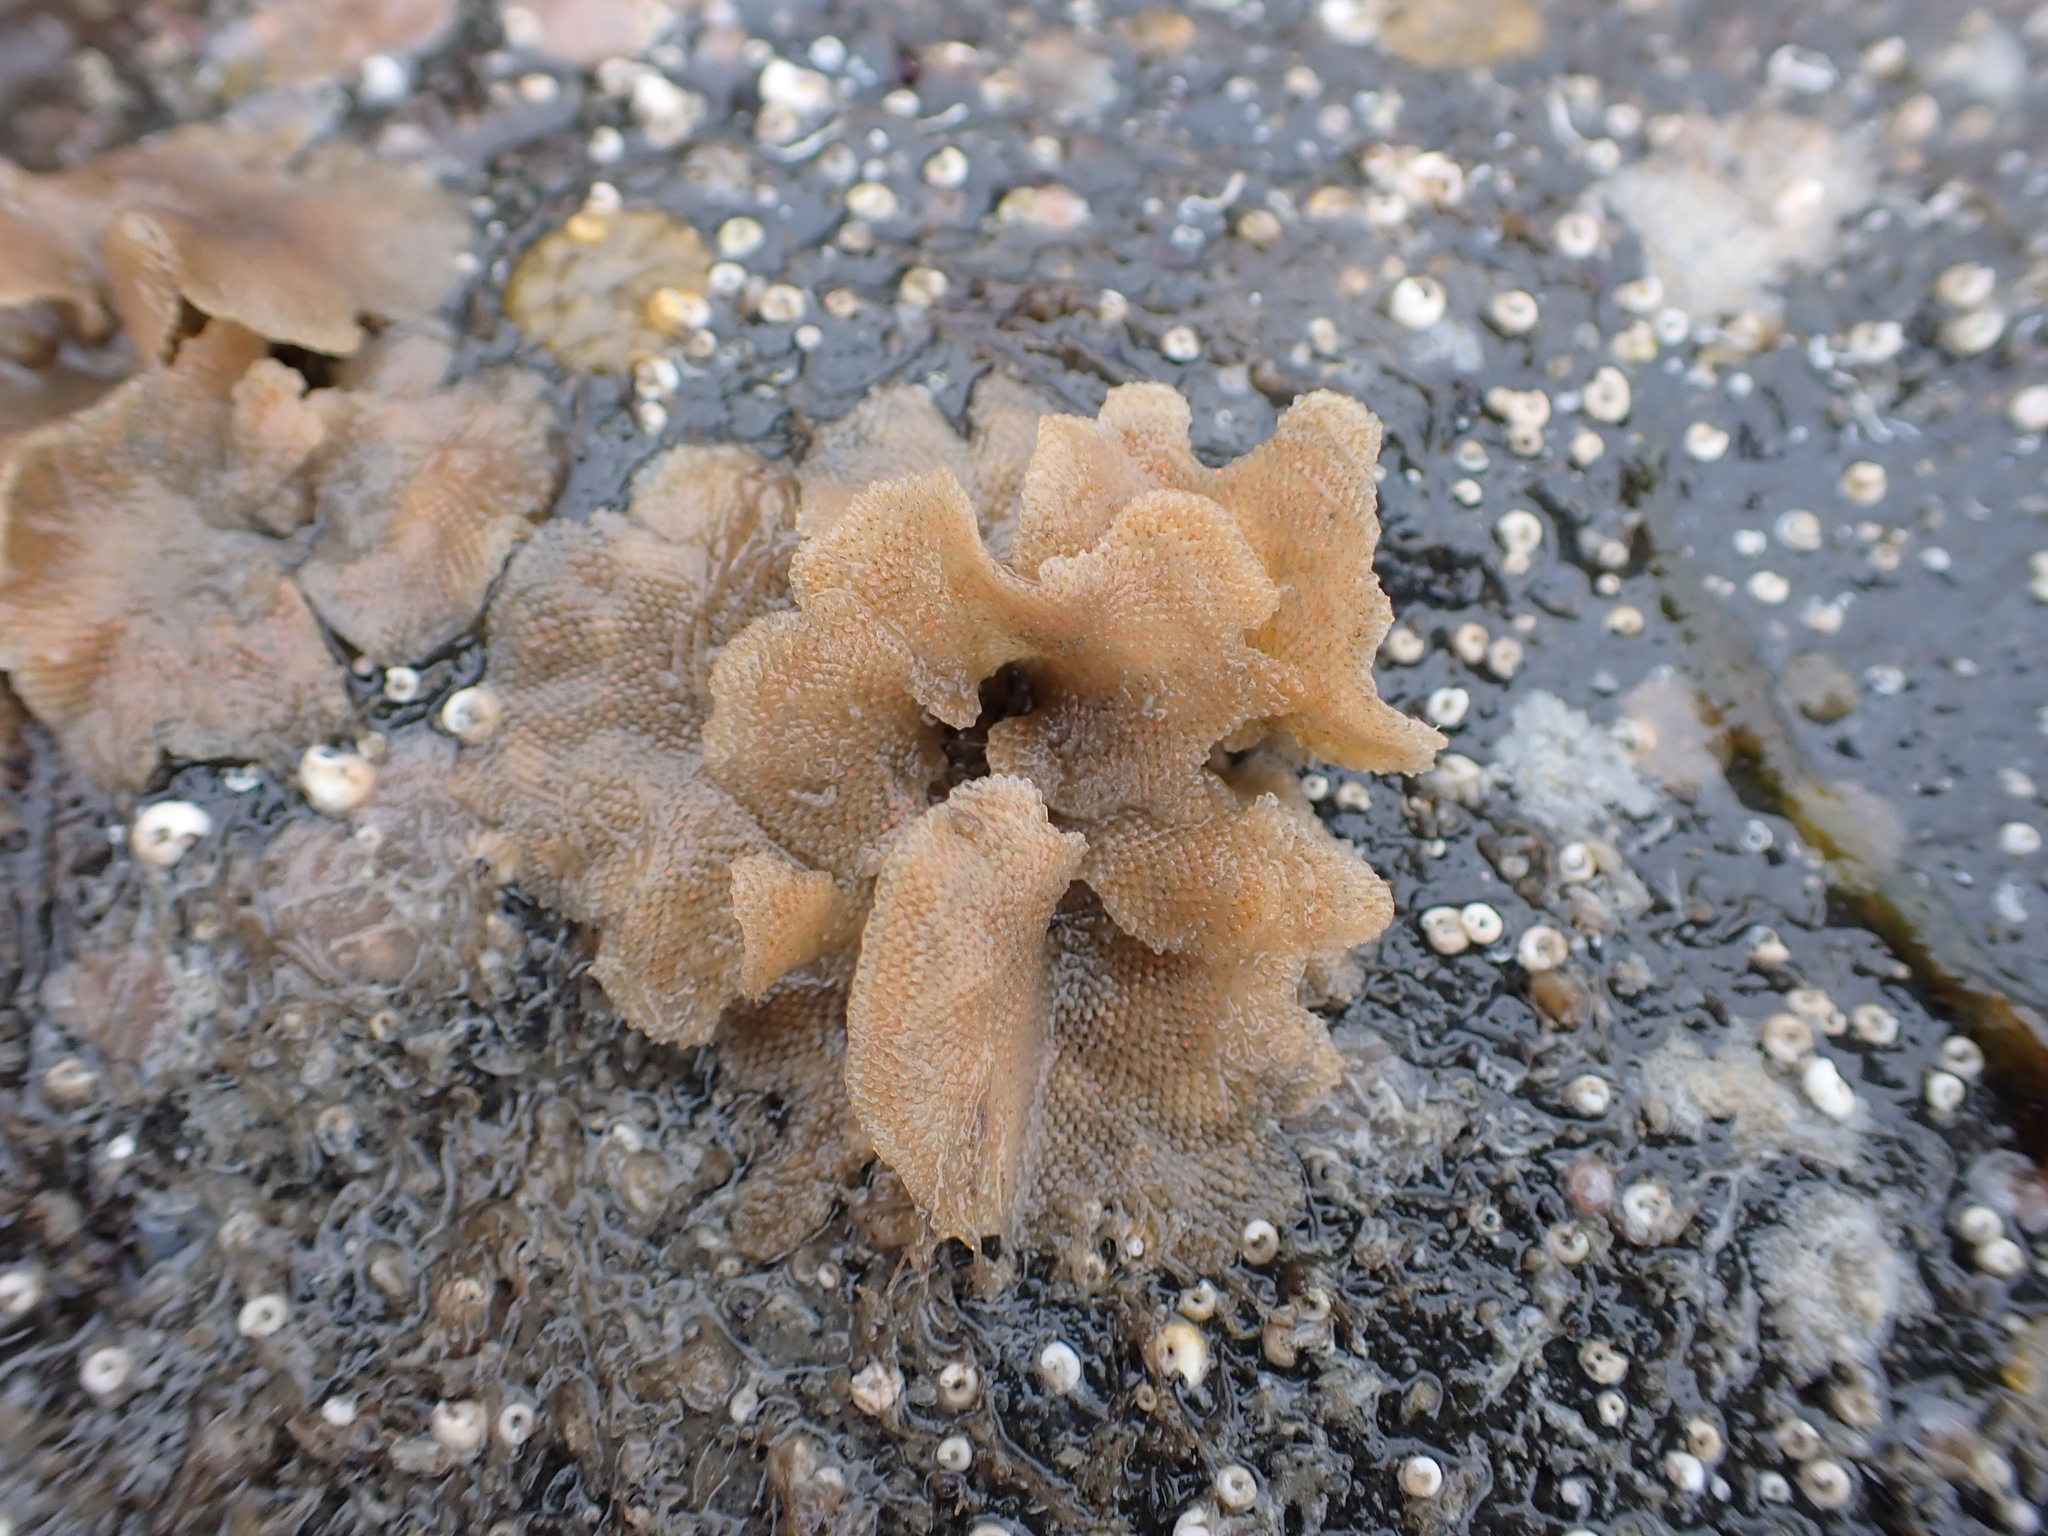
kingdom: Animalia
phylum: Bryozoa
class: Gymnolaemata
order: Cheilostomatida
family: Bugulidae
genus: Dendrobeania
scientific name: Dendrobeania lichenoides
